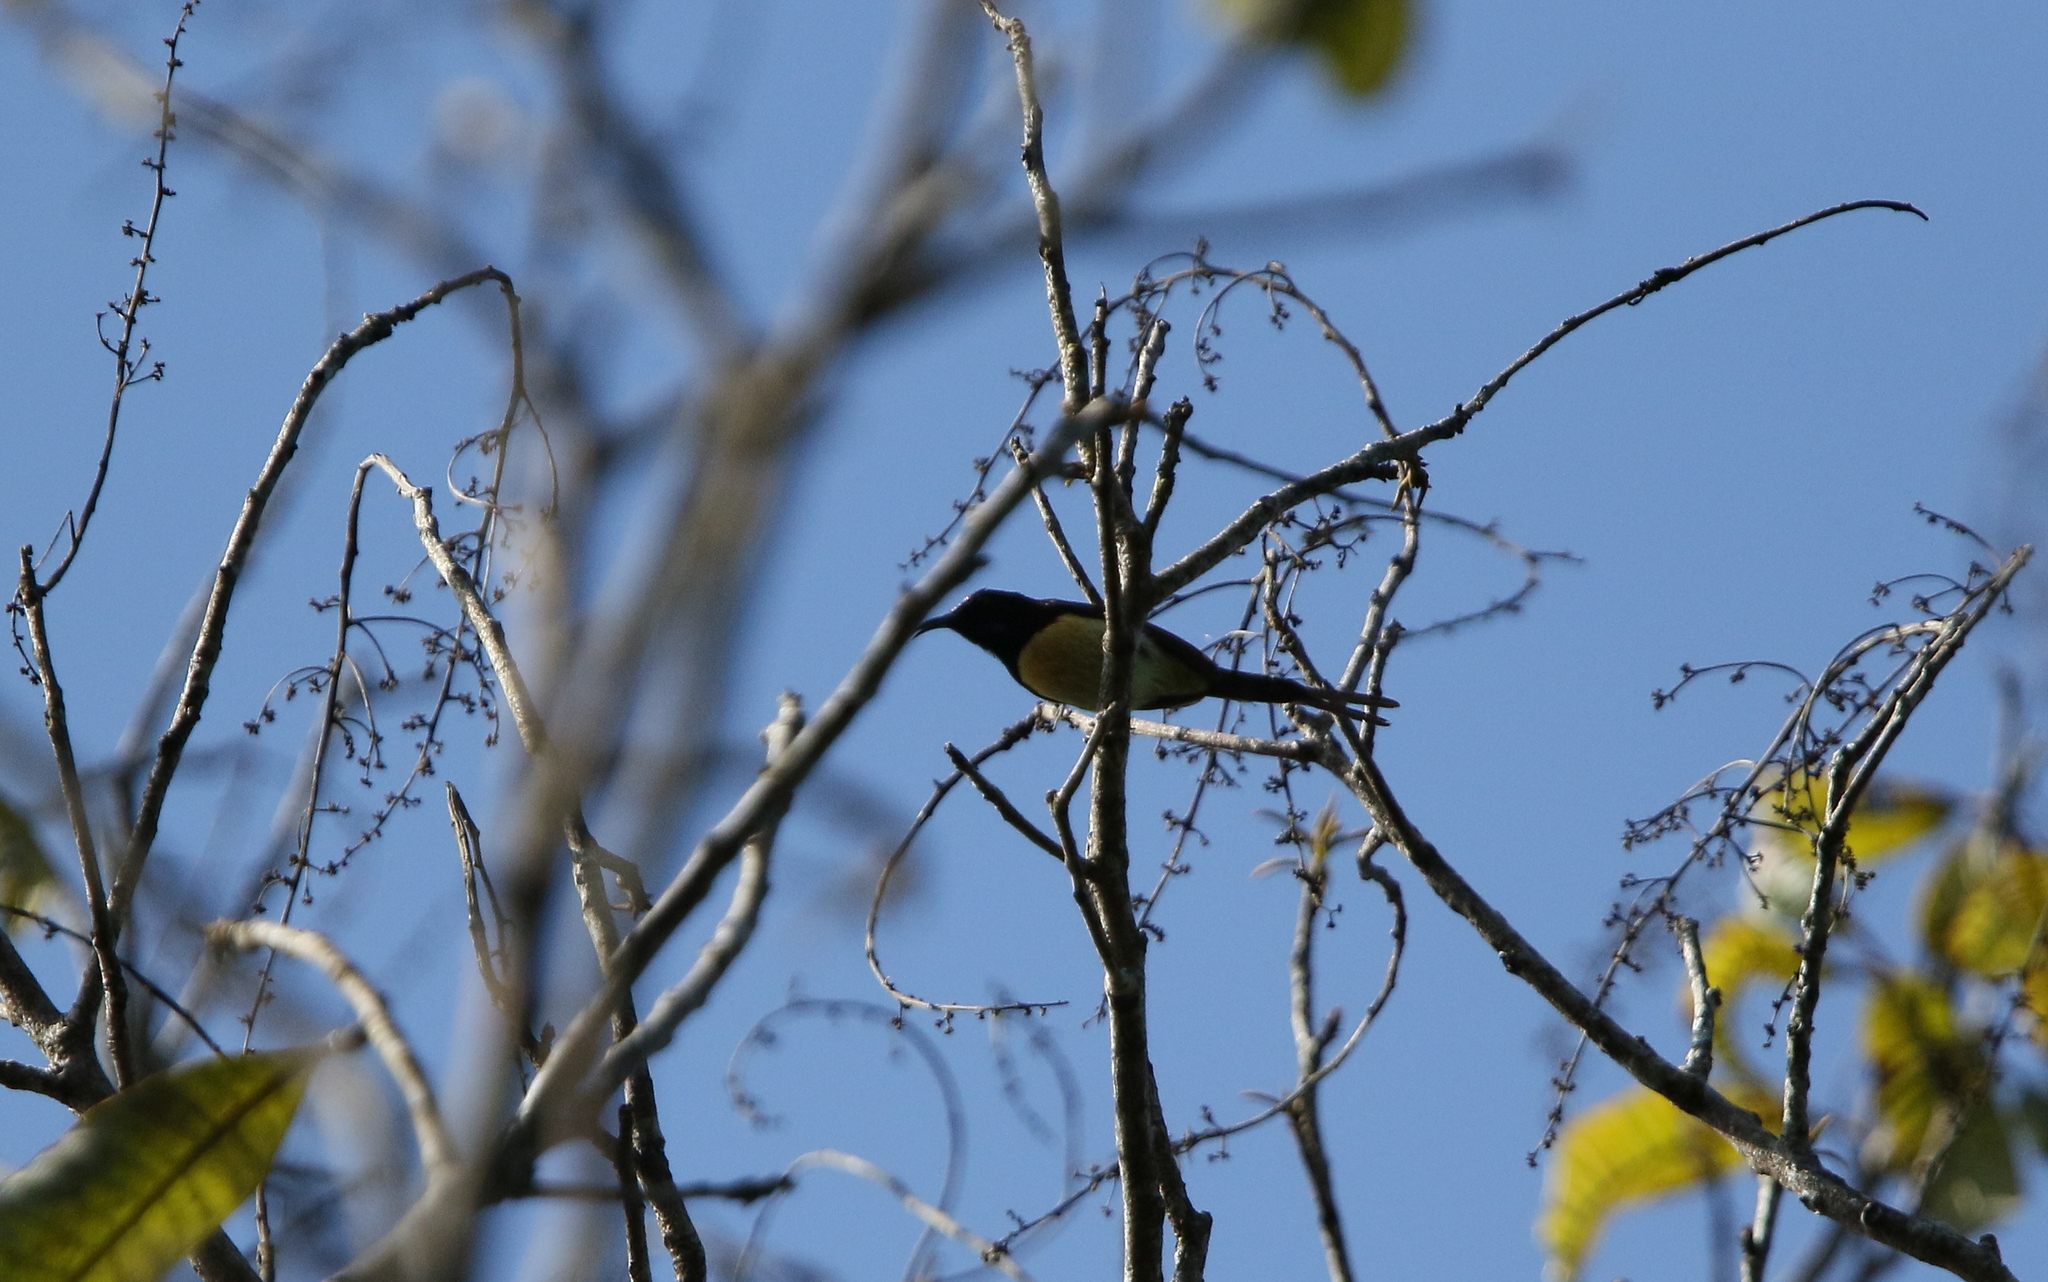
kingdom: Animalia
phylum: Chordata
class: Aves
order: Passeriformes
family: Nectariniidae
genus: Aethopyga
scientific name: Aethopyga saturata
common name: Black-throated sunbird
